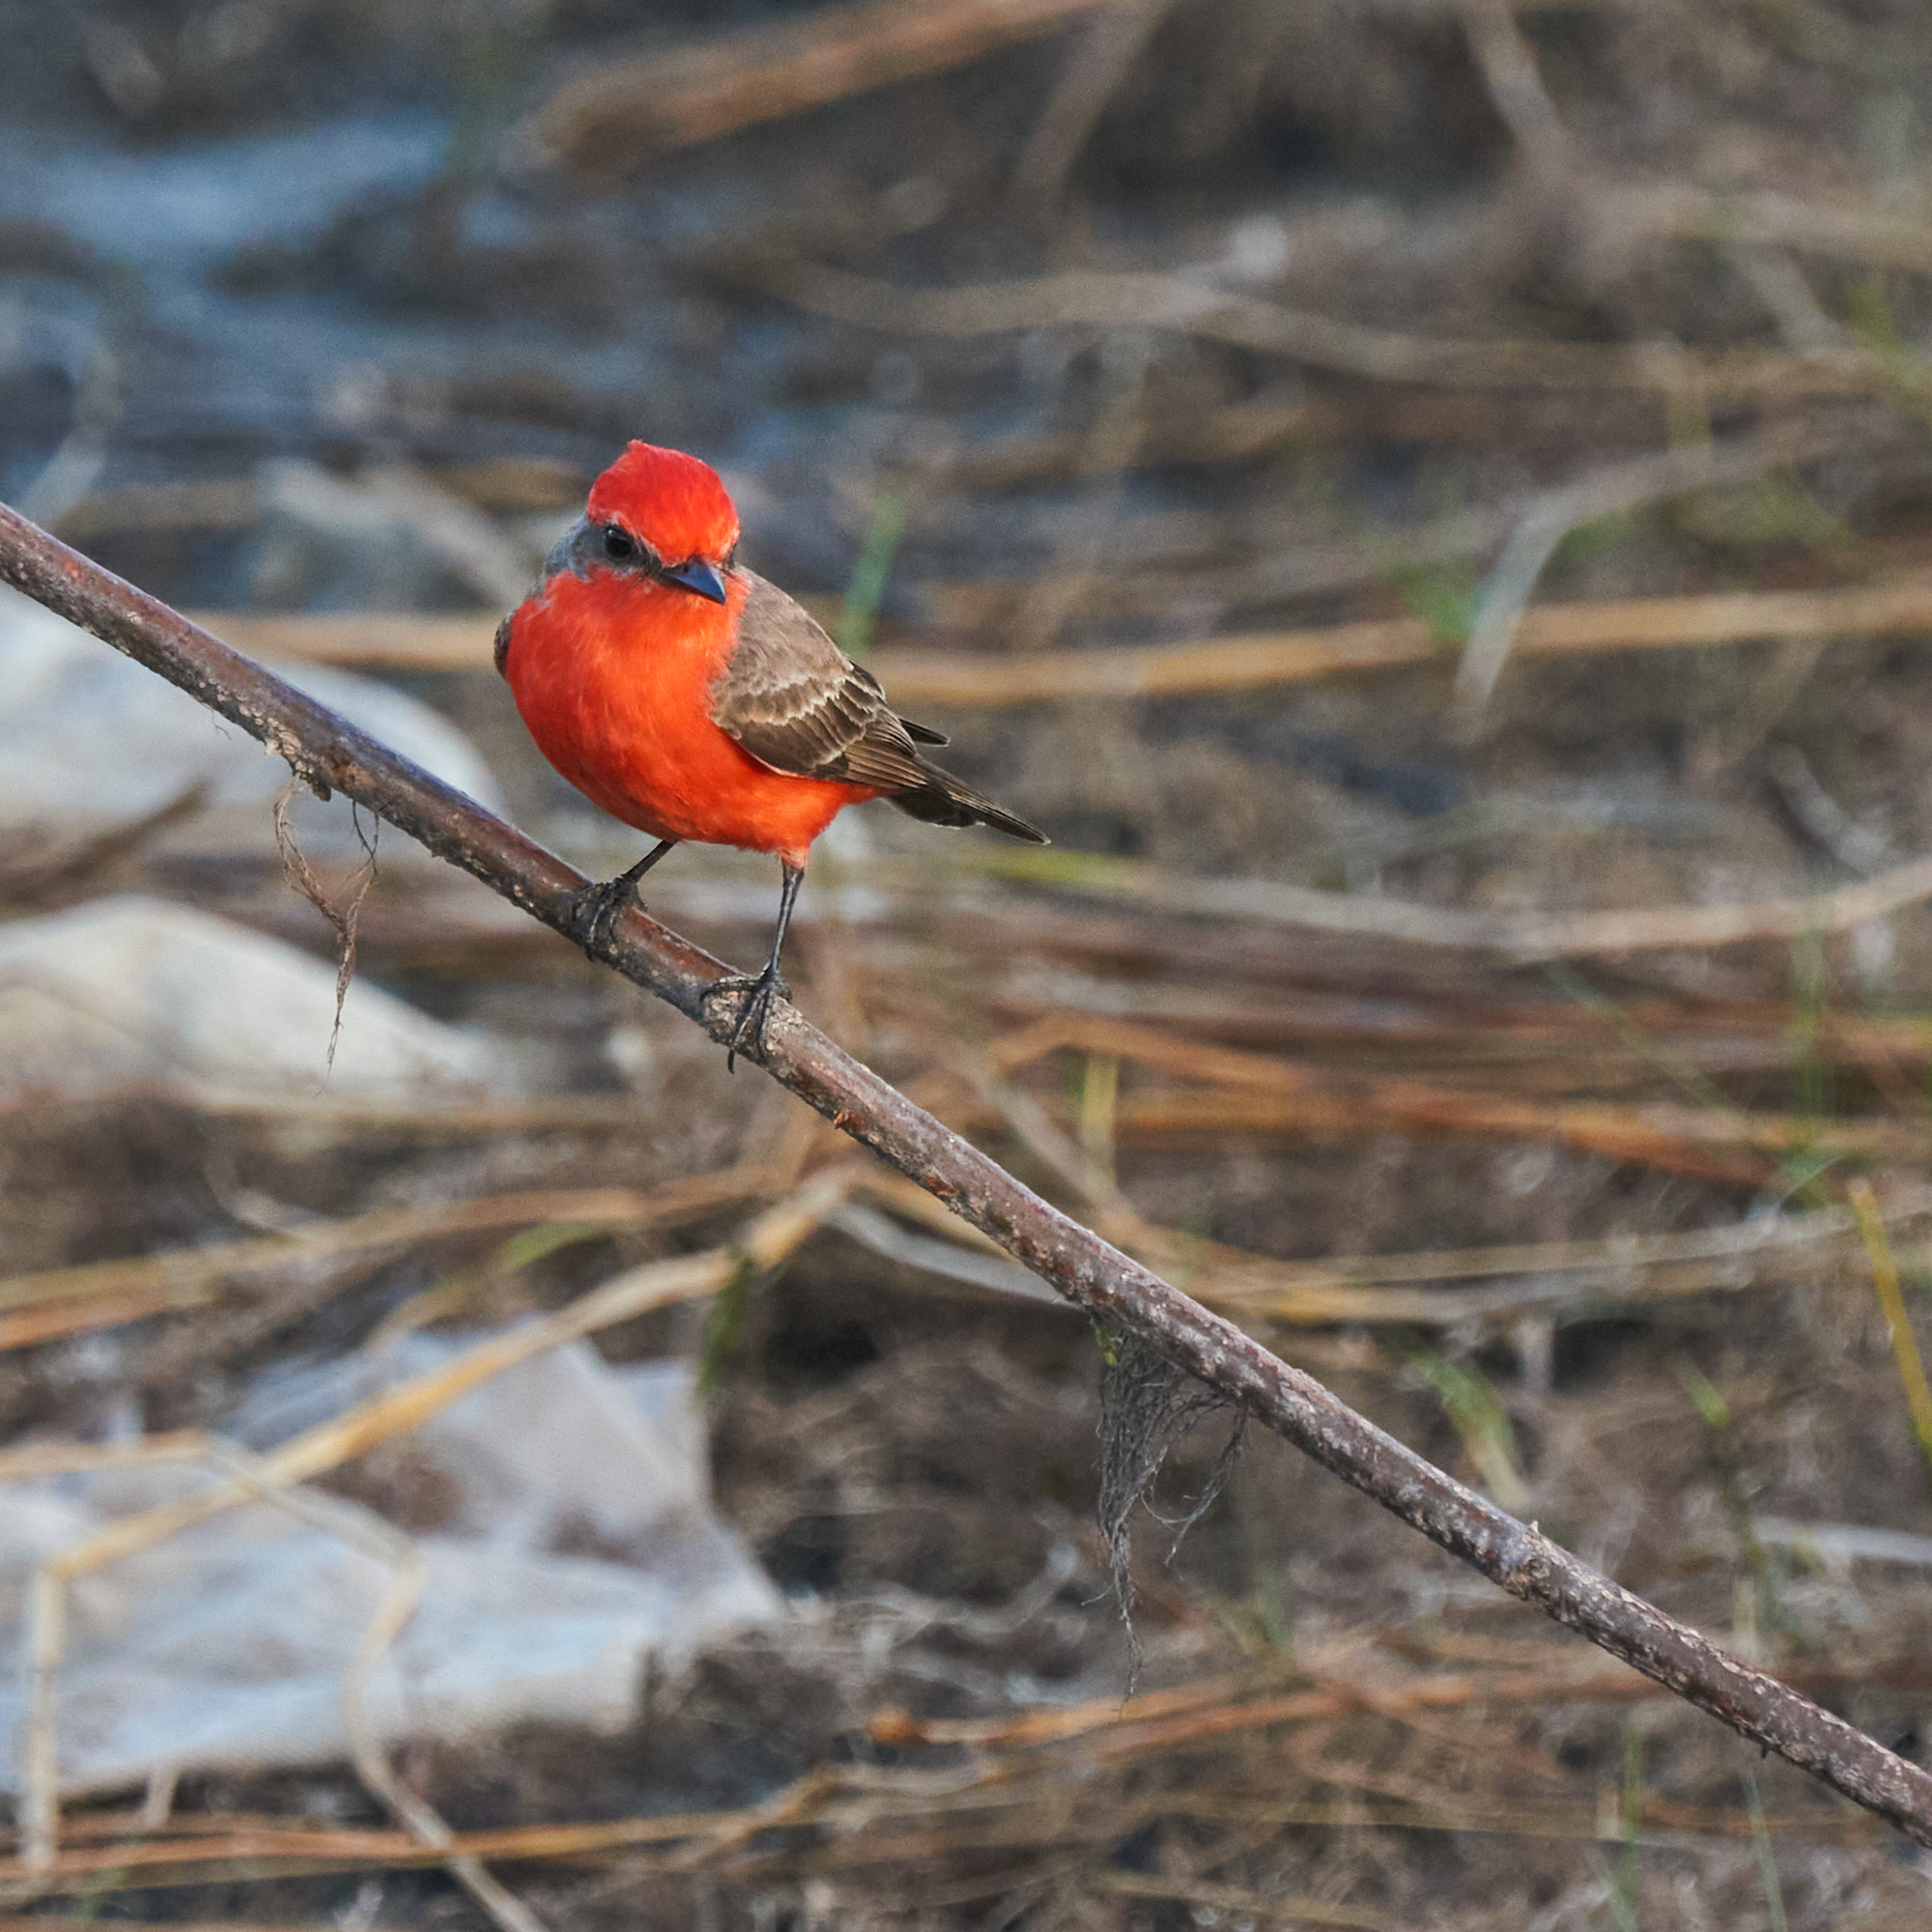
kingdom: Animalia
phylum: Chordata
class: Aves
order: Passeriformes
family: Tyrannidae
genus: Pyrocephalus
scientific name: Pyrocephalus rubinus
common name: Vermilion flycatcher
